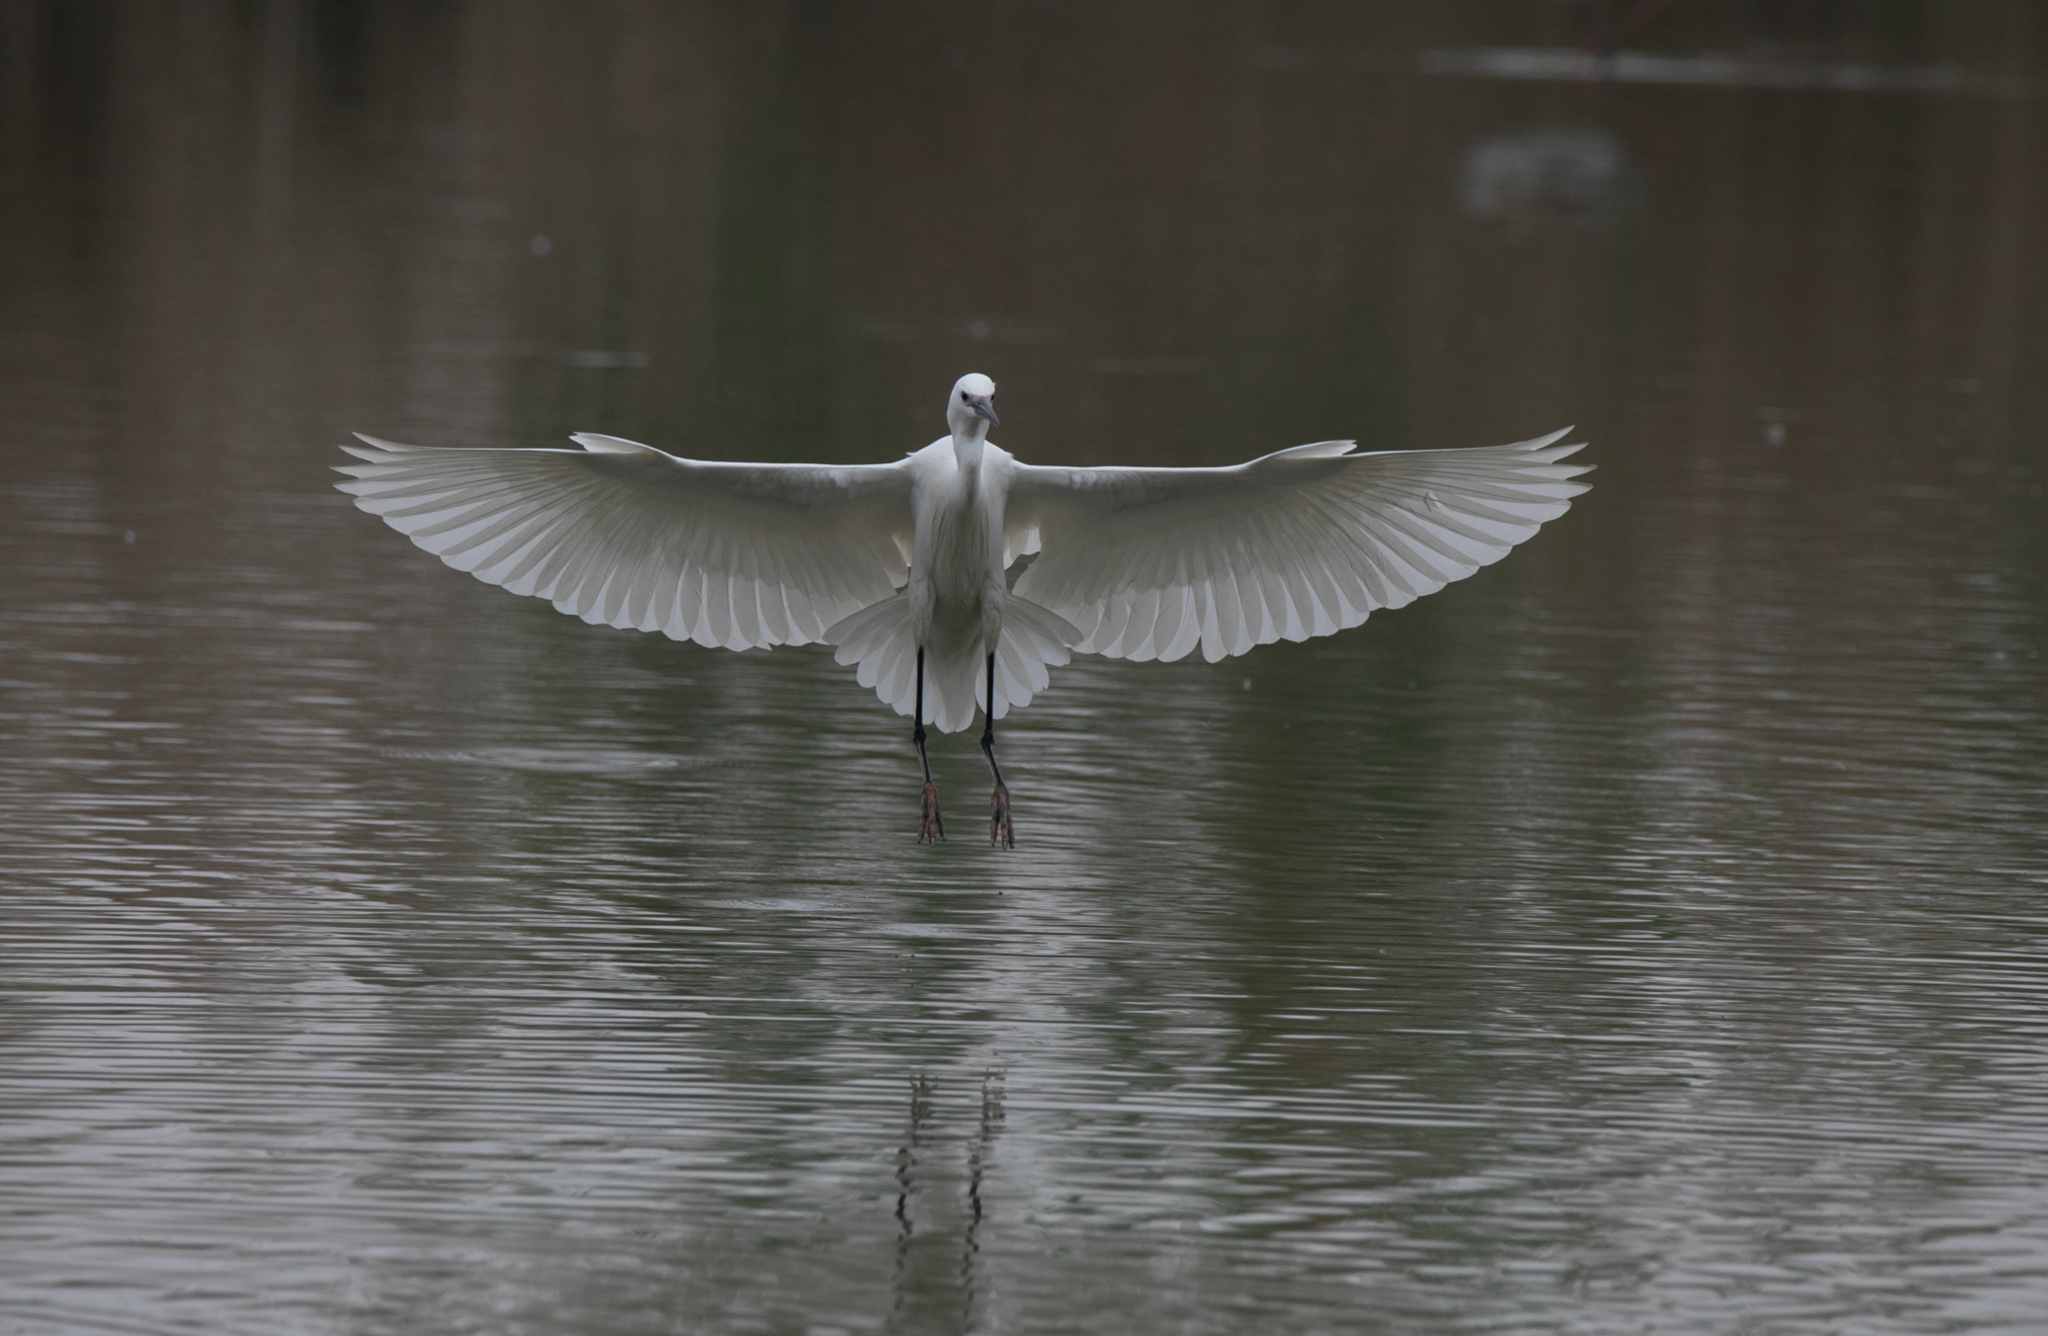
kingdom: Animalia
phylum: Chordata
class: Aves
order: Pelecaniformes
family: Ardeidae
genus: Egretta
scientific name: Egretta garzetta
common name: Little egret
